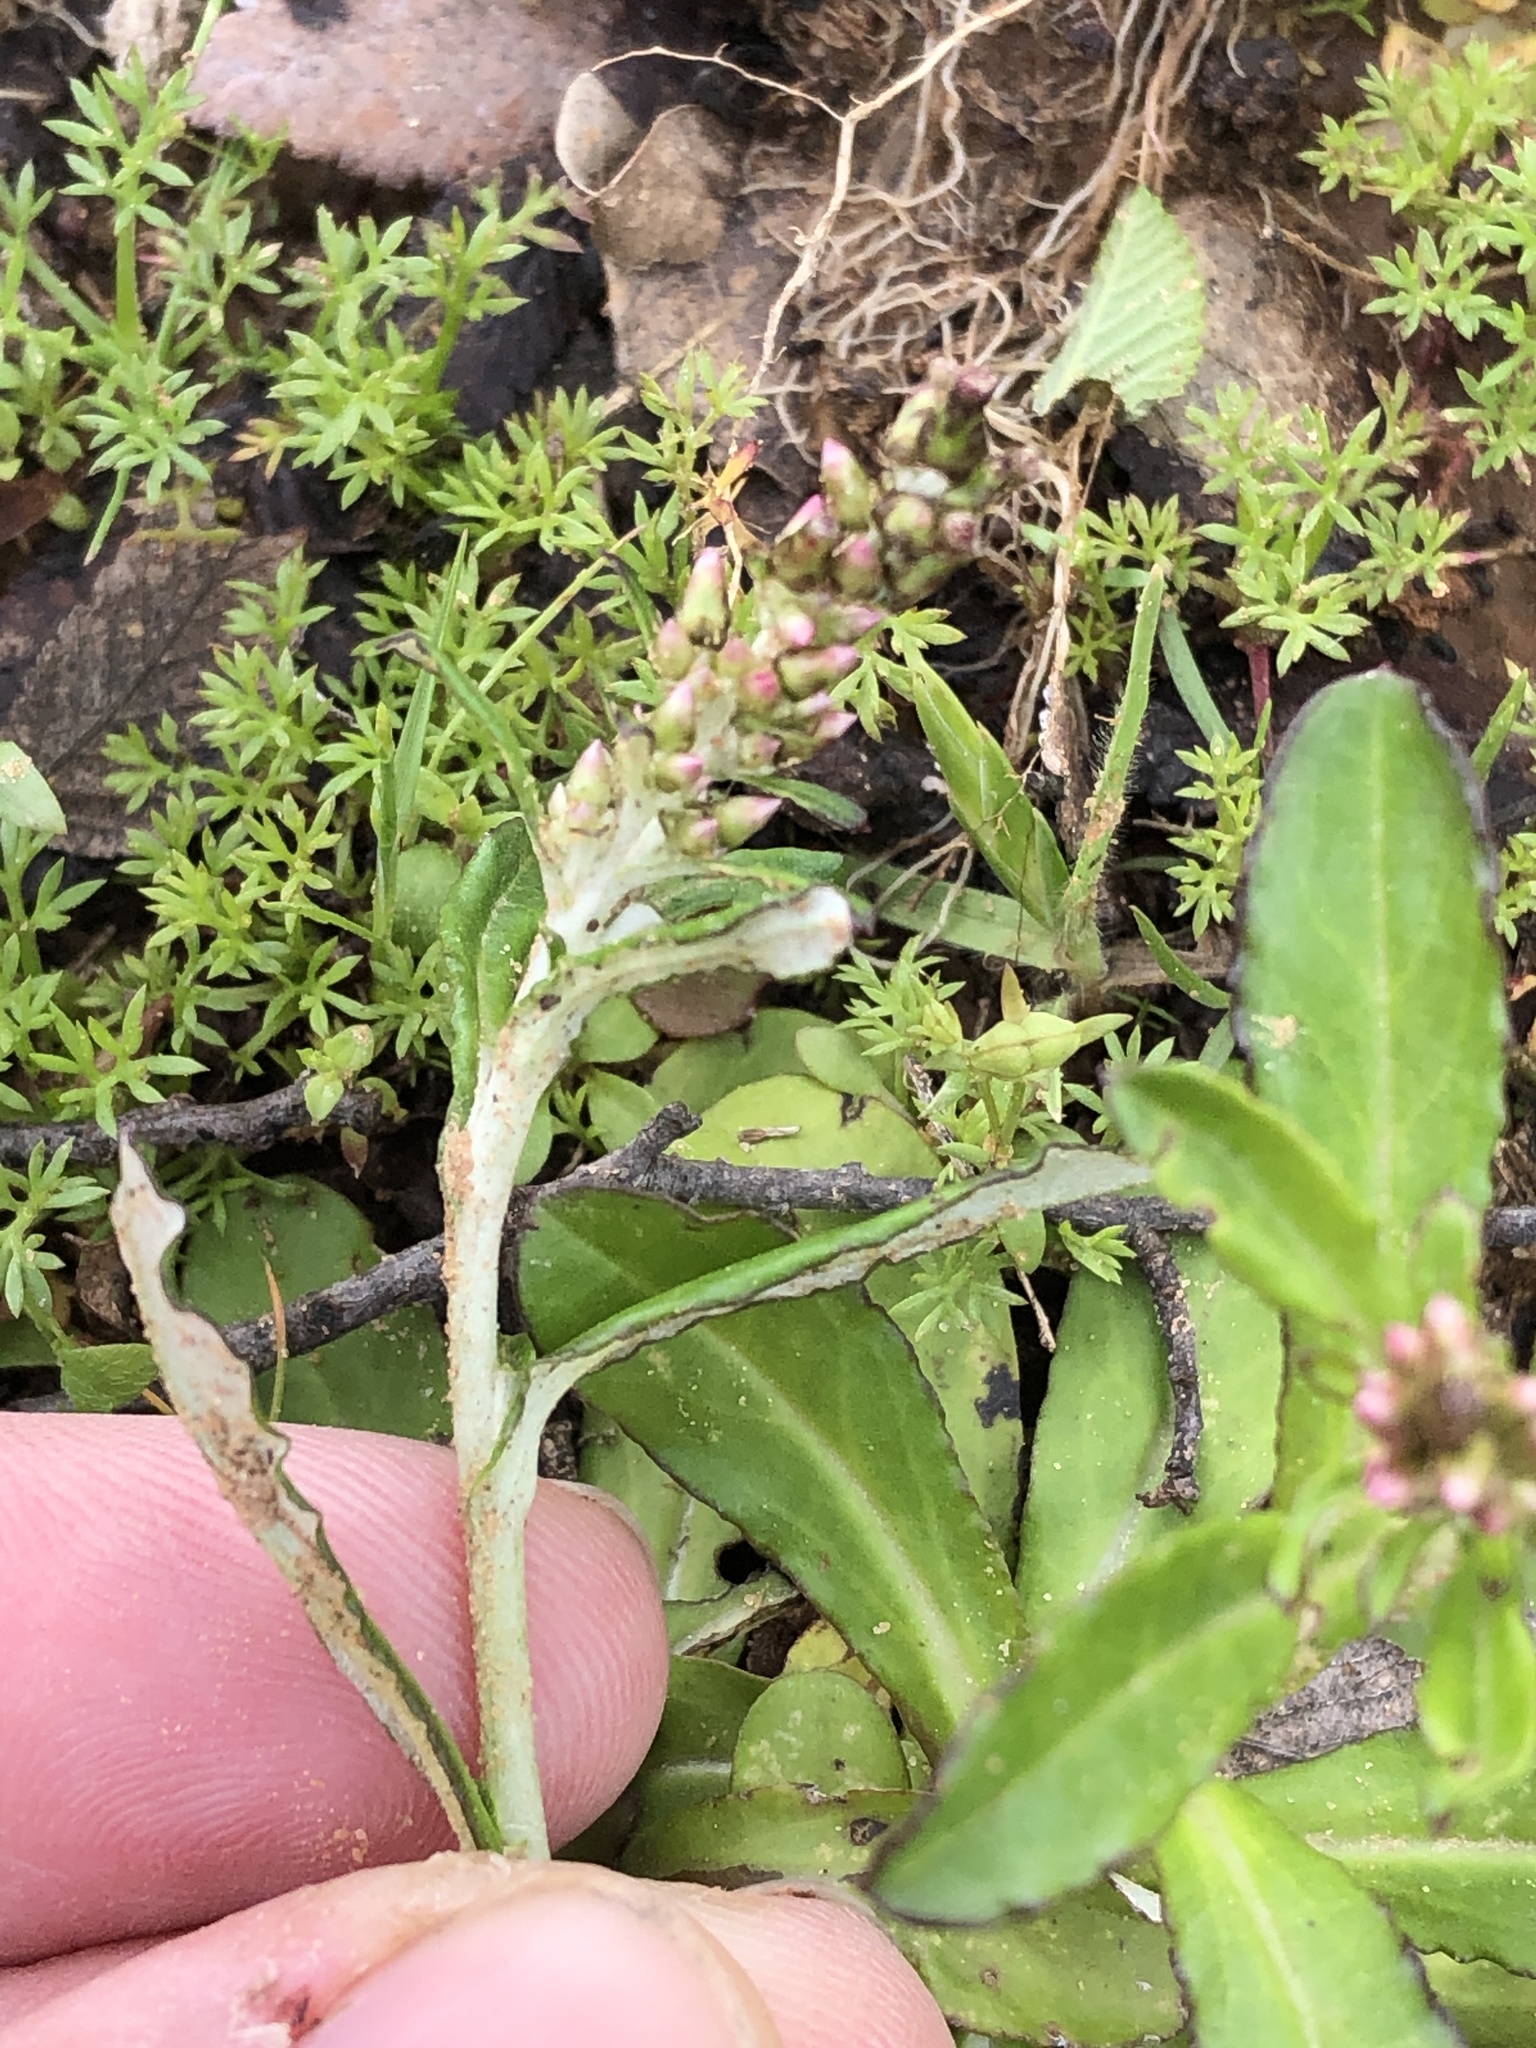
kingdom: Plantae
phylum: Tracheophyta
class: Magnoliopsida
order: Asterales
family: Asteraceae
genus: Gamochaeta
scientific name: Gamochaeta pensylvanica
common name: Pennsylvania everlasting
